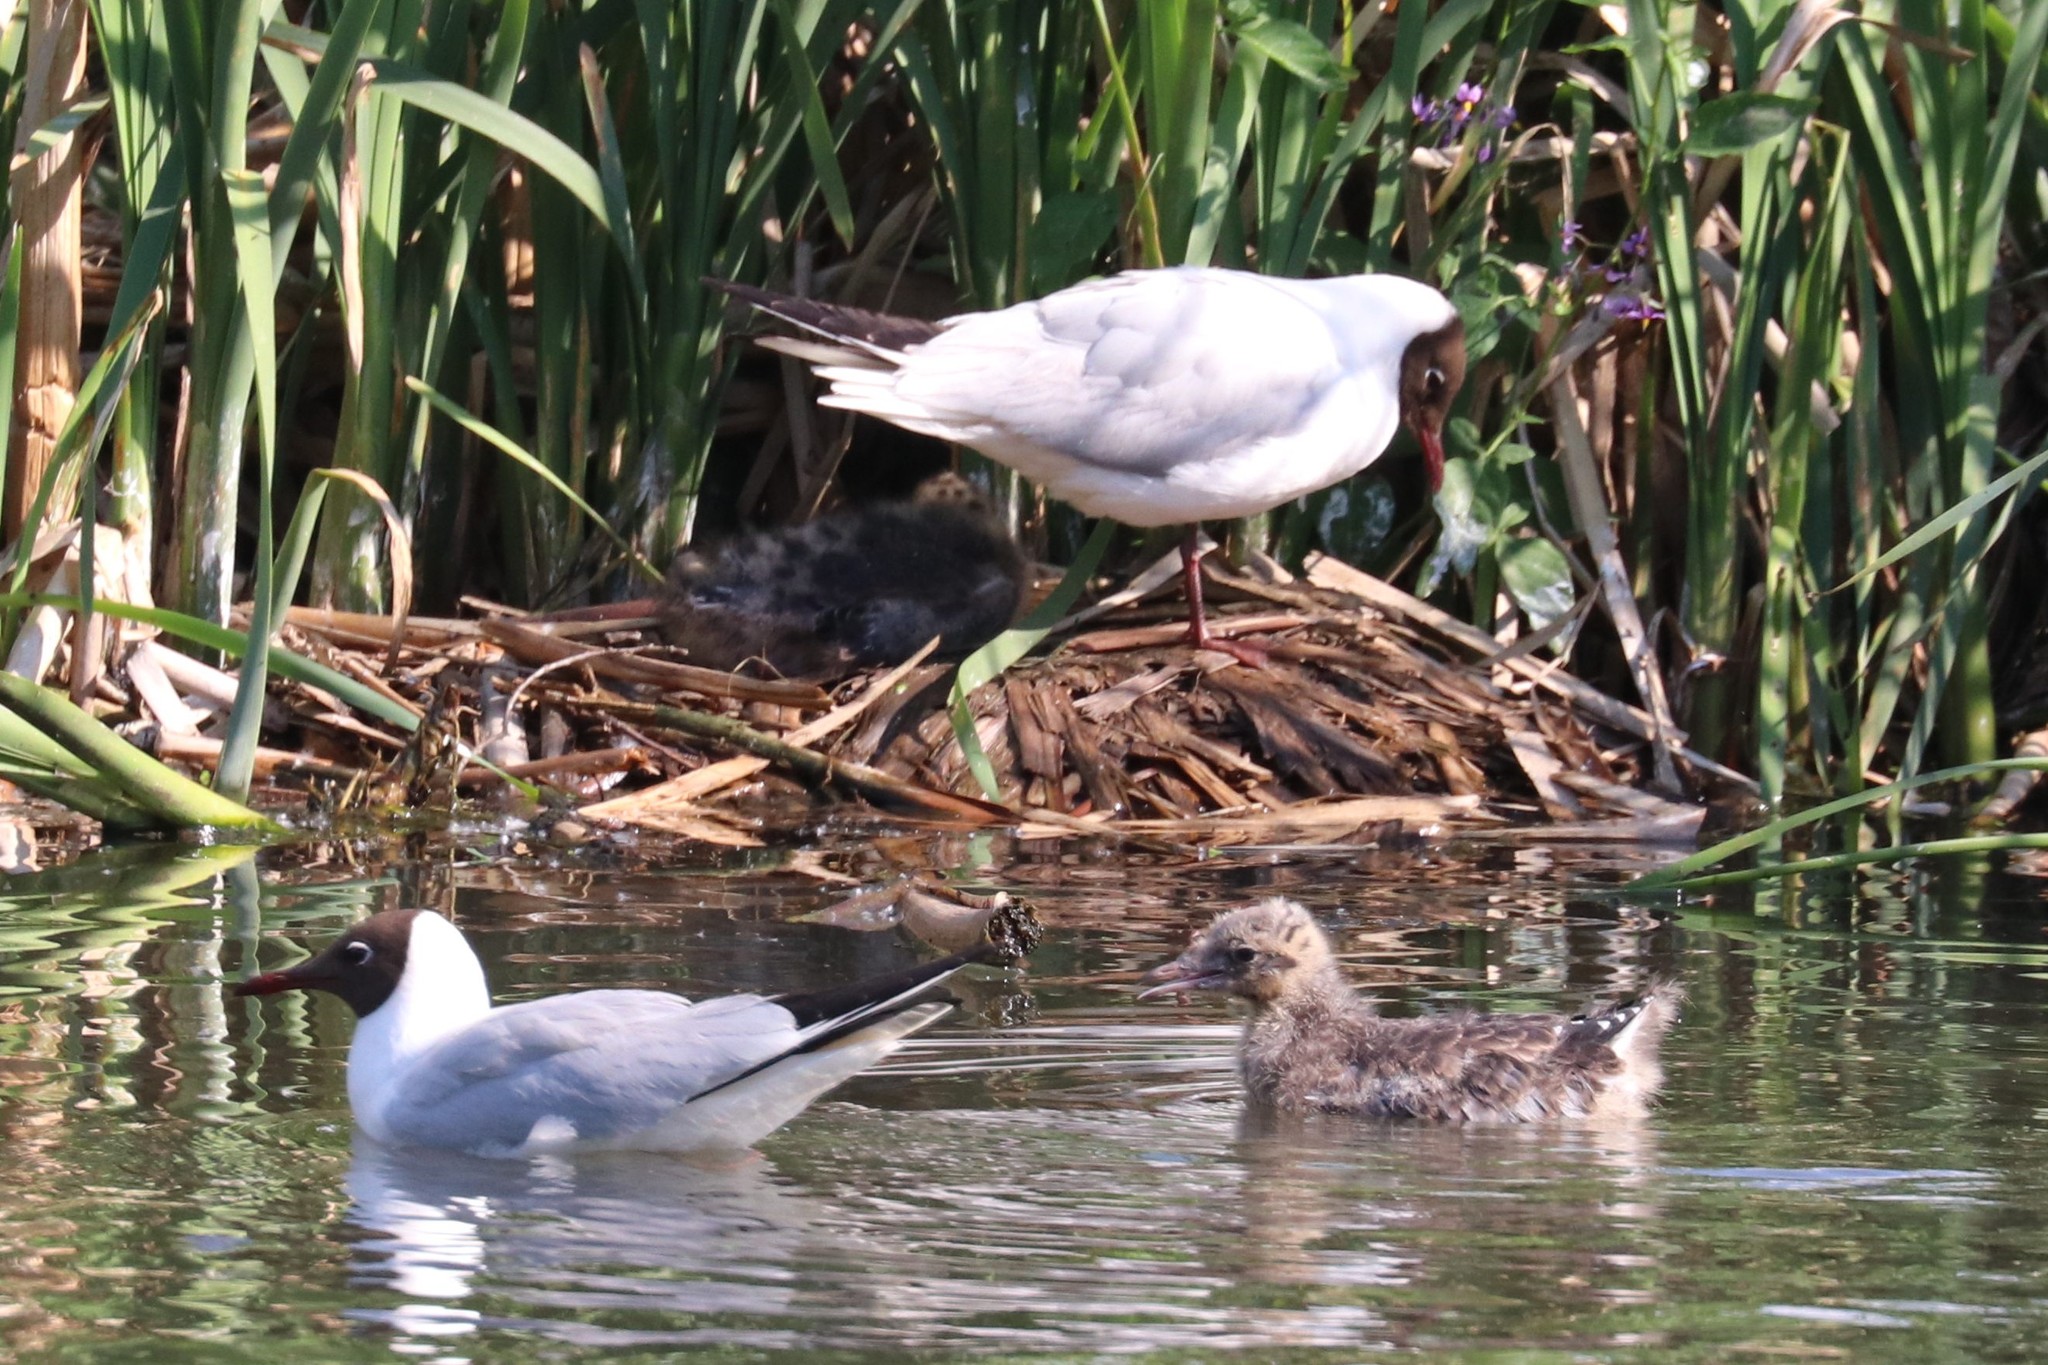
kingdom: Animalia
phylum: Chordata
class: Aves
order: Charadriiformes
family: Laridae
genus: Chroicocephalus
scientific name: Chroicocephalus ridibundus
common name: Black-headed gull
